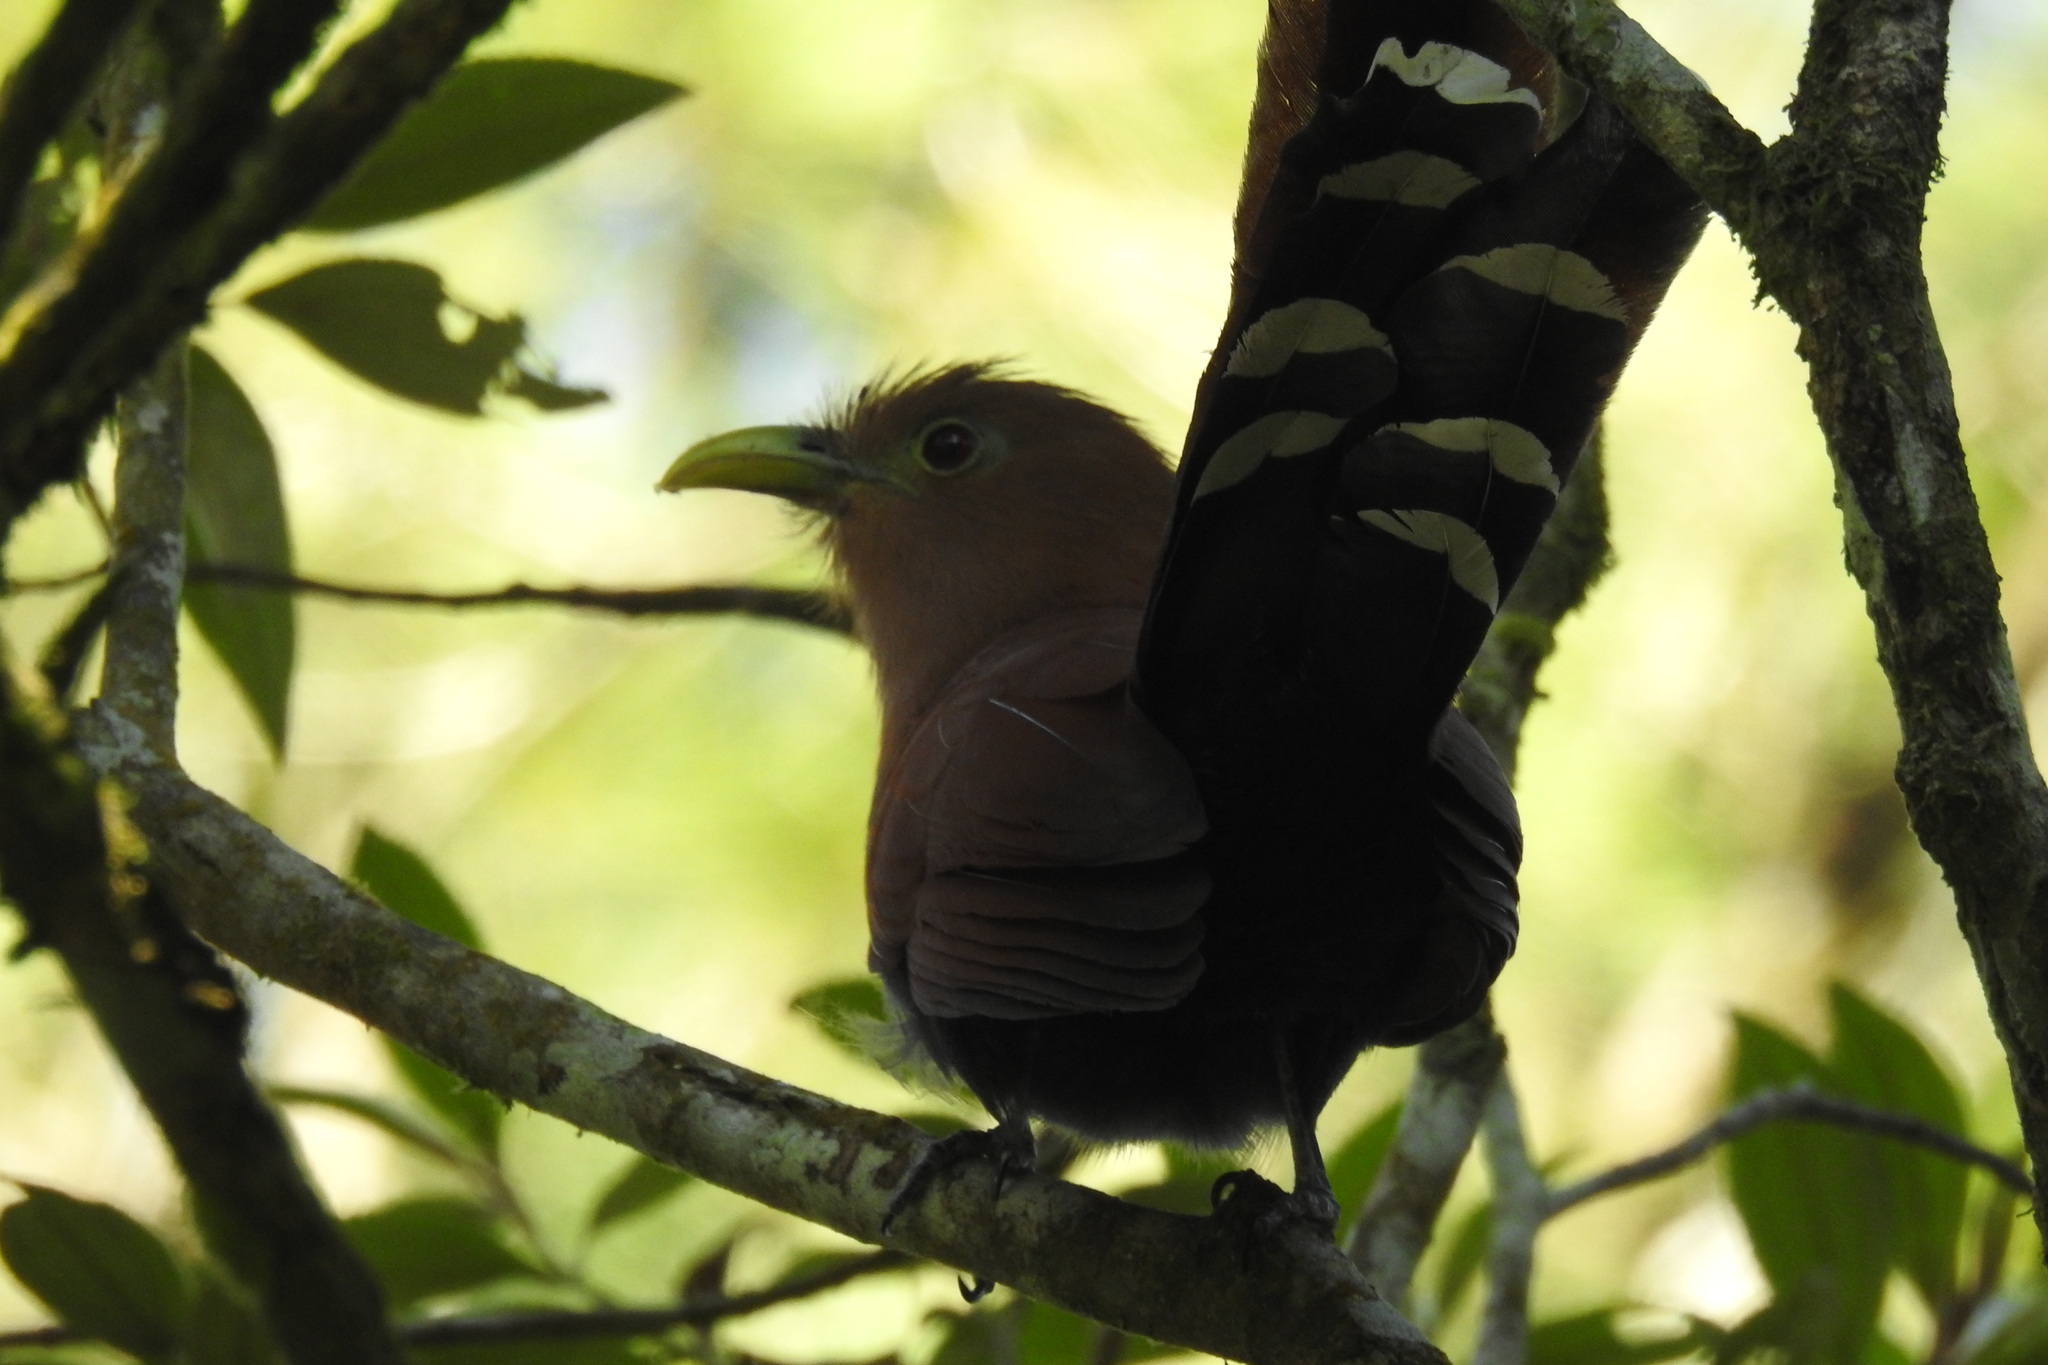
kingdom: Animalia
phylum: Chordata
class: Aves
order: Cuculiformes
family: Cuculidae
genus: Piaya
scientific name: Piaya cayana
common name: Squirrel cuckoo
